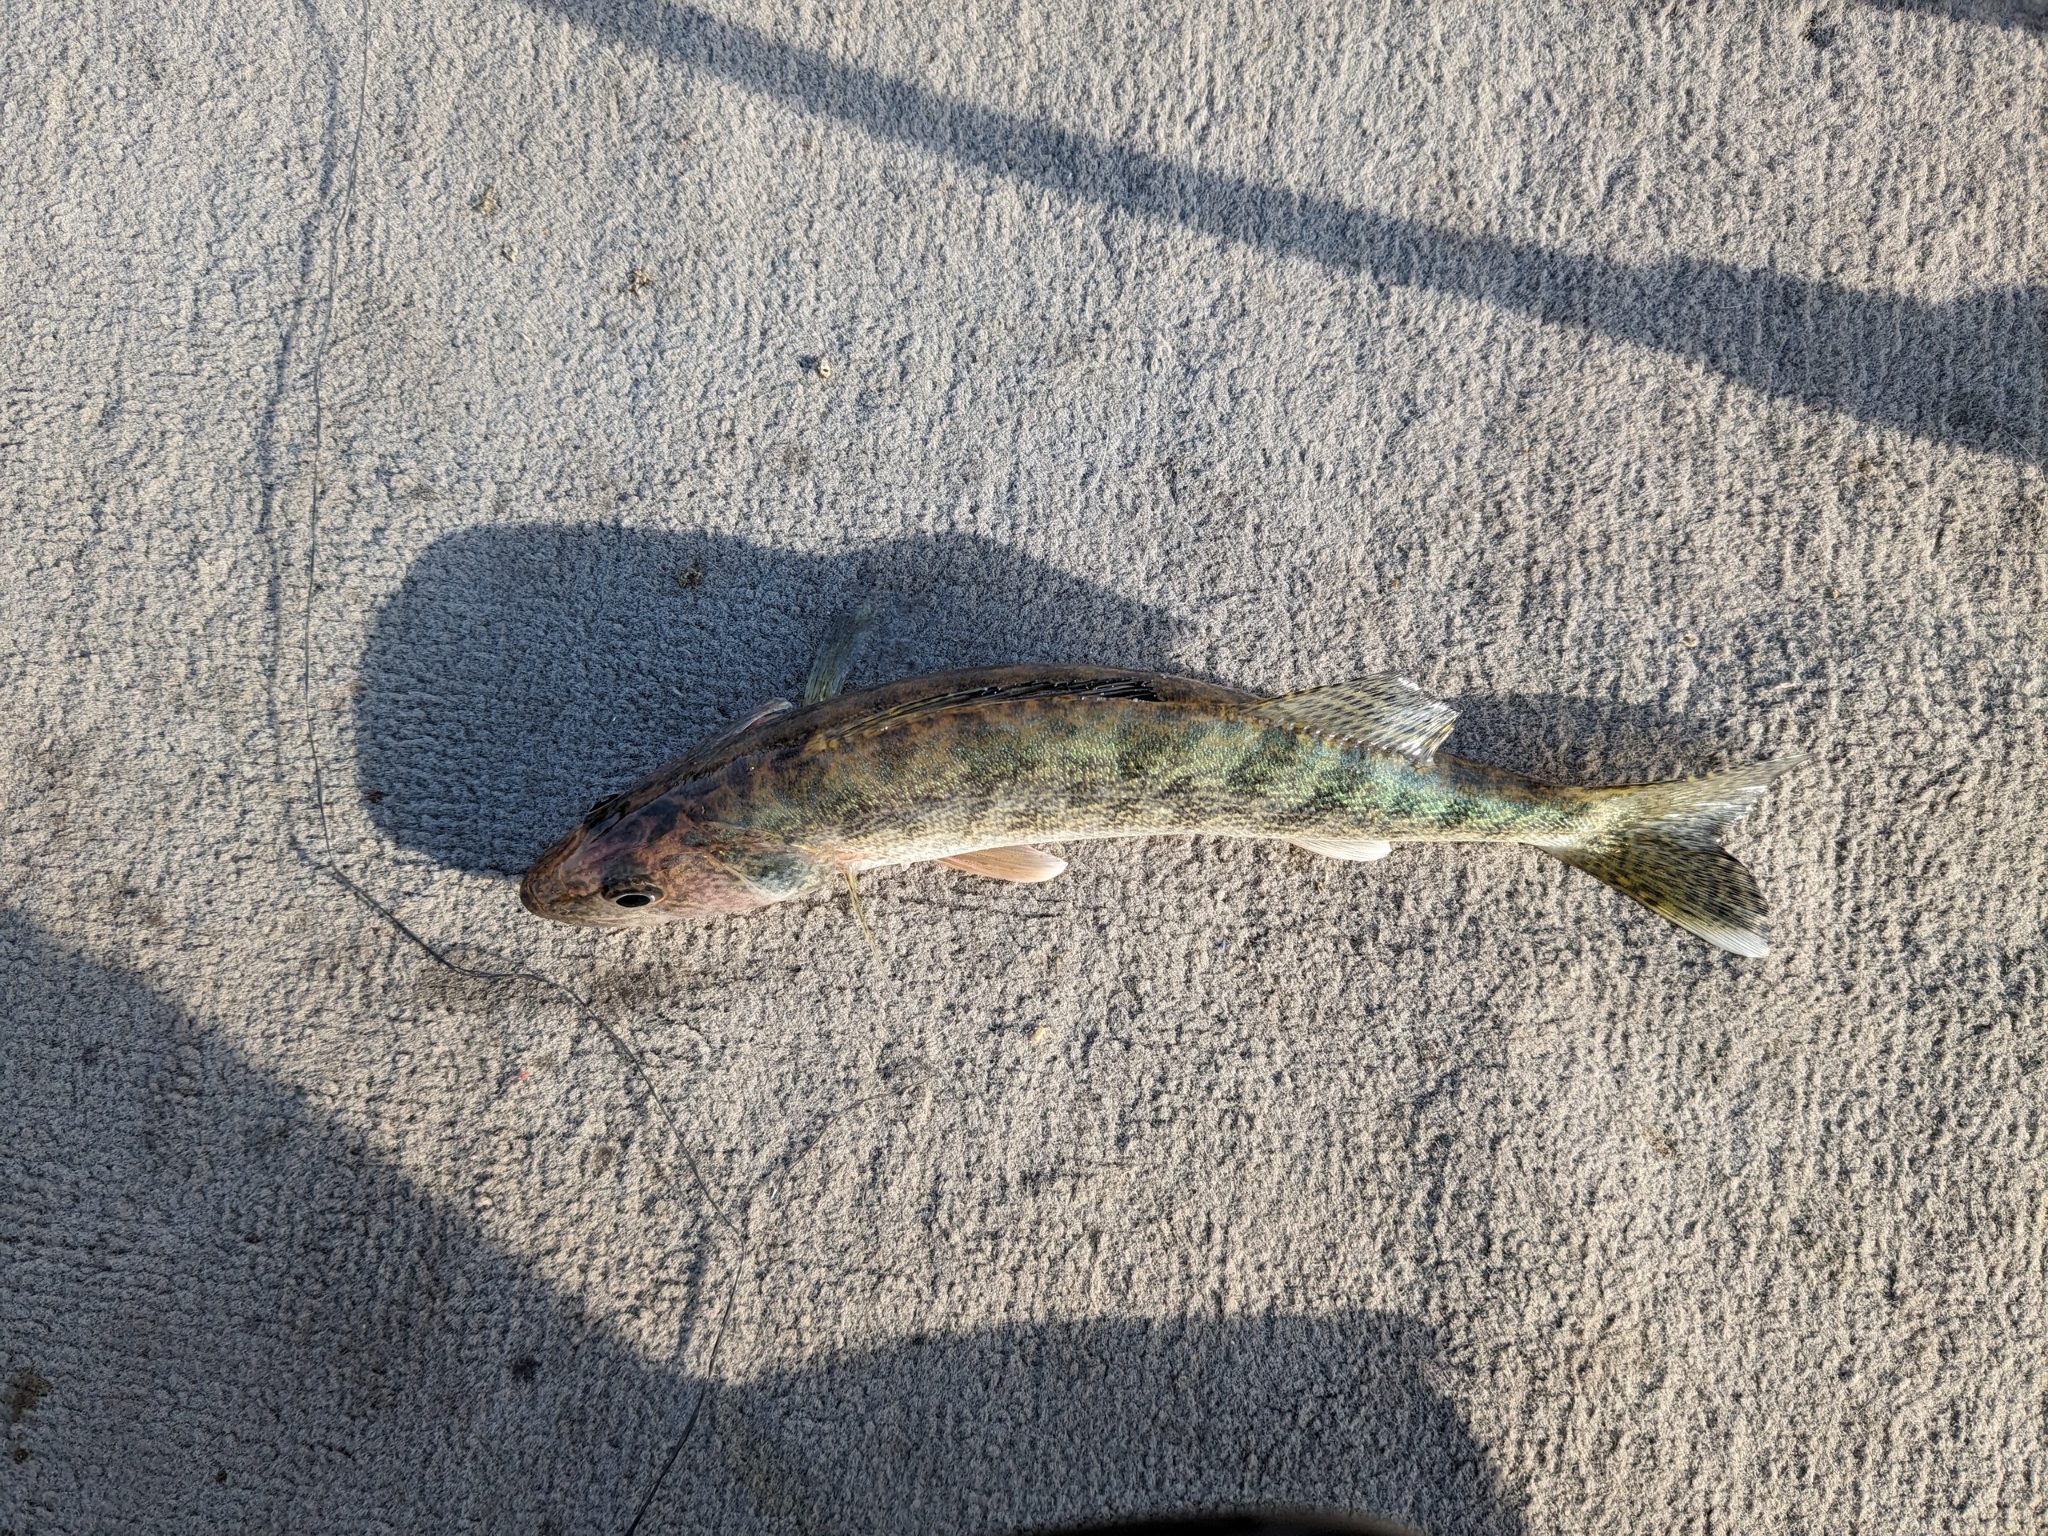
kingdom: Animalia
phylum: Chordata
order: Perciformes
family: Percidae
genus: Sander
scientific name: Sander vitreus
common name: Walleye
